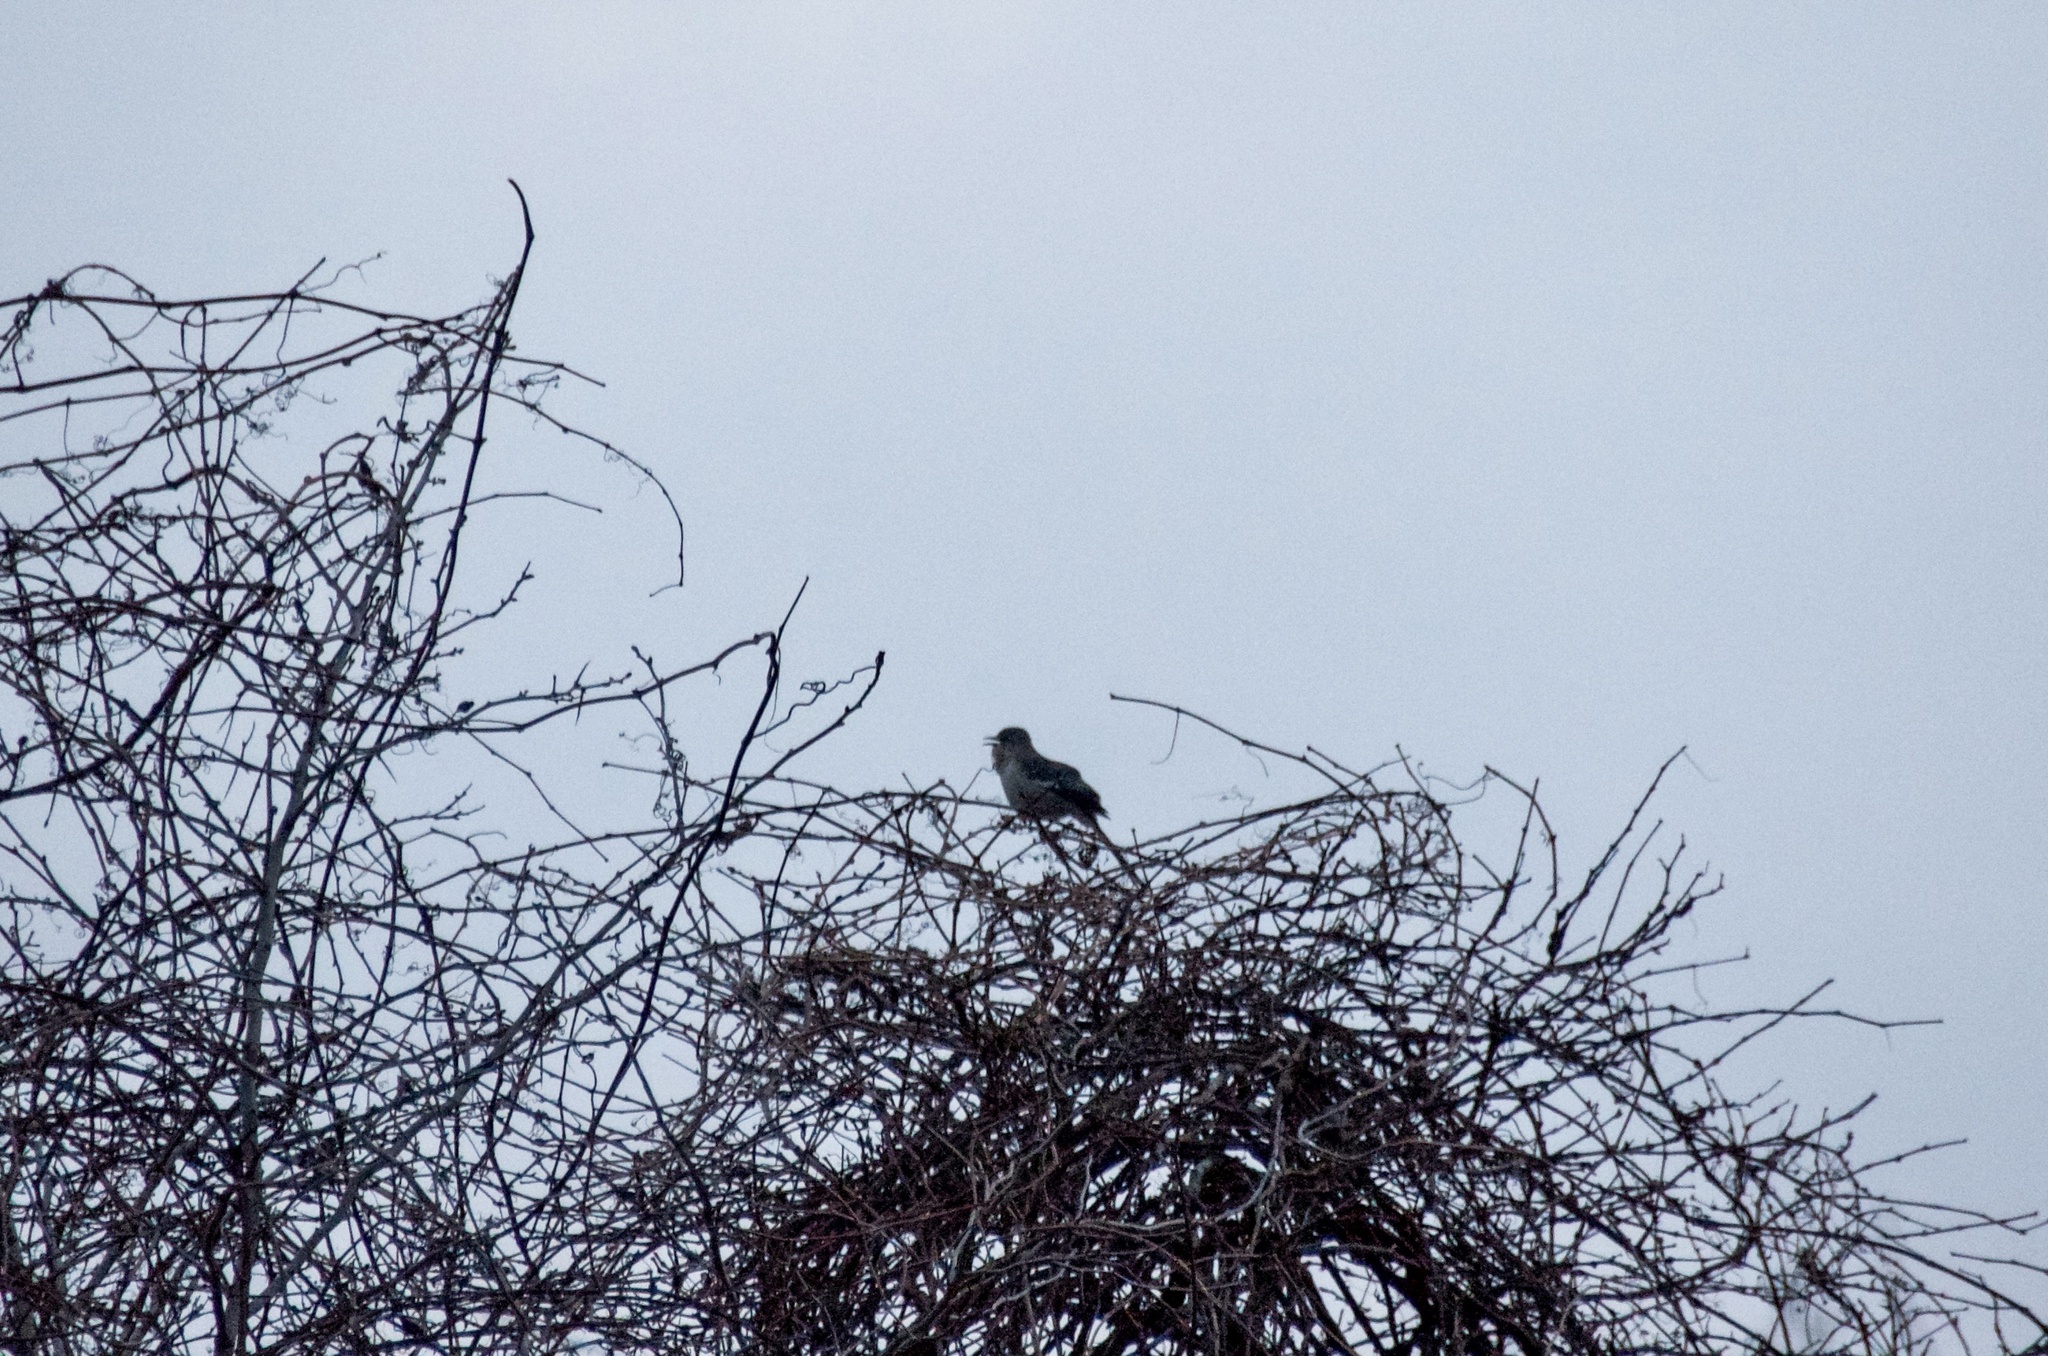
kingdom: Animalia
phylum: Chordata
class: Aves
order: Passeriformes
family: Mimidae
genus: Mimus
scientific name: Mimus polyglottos
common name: Northern mockingbird
